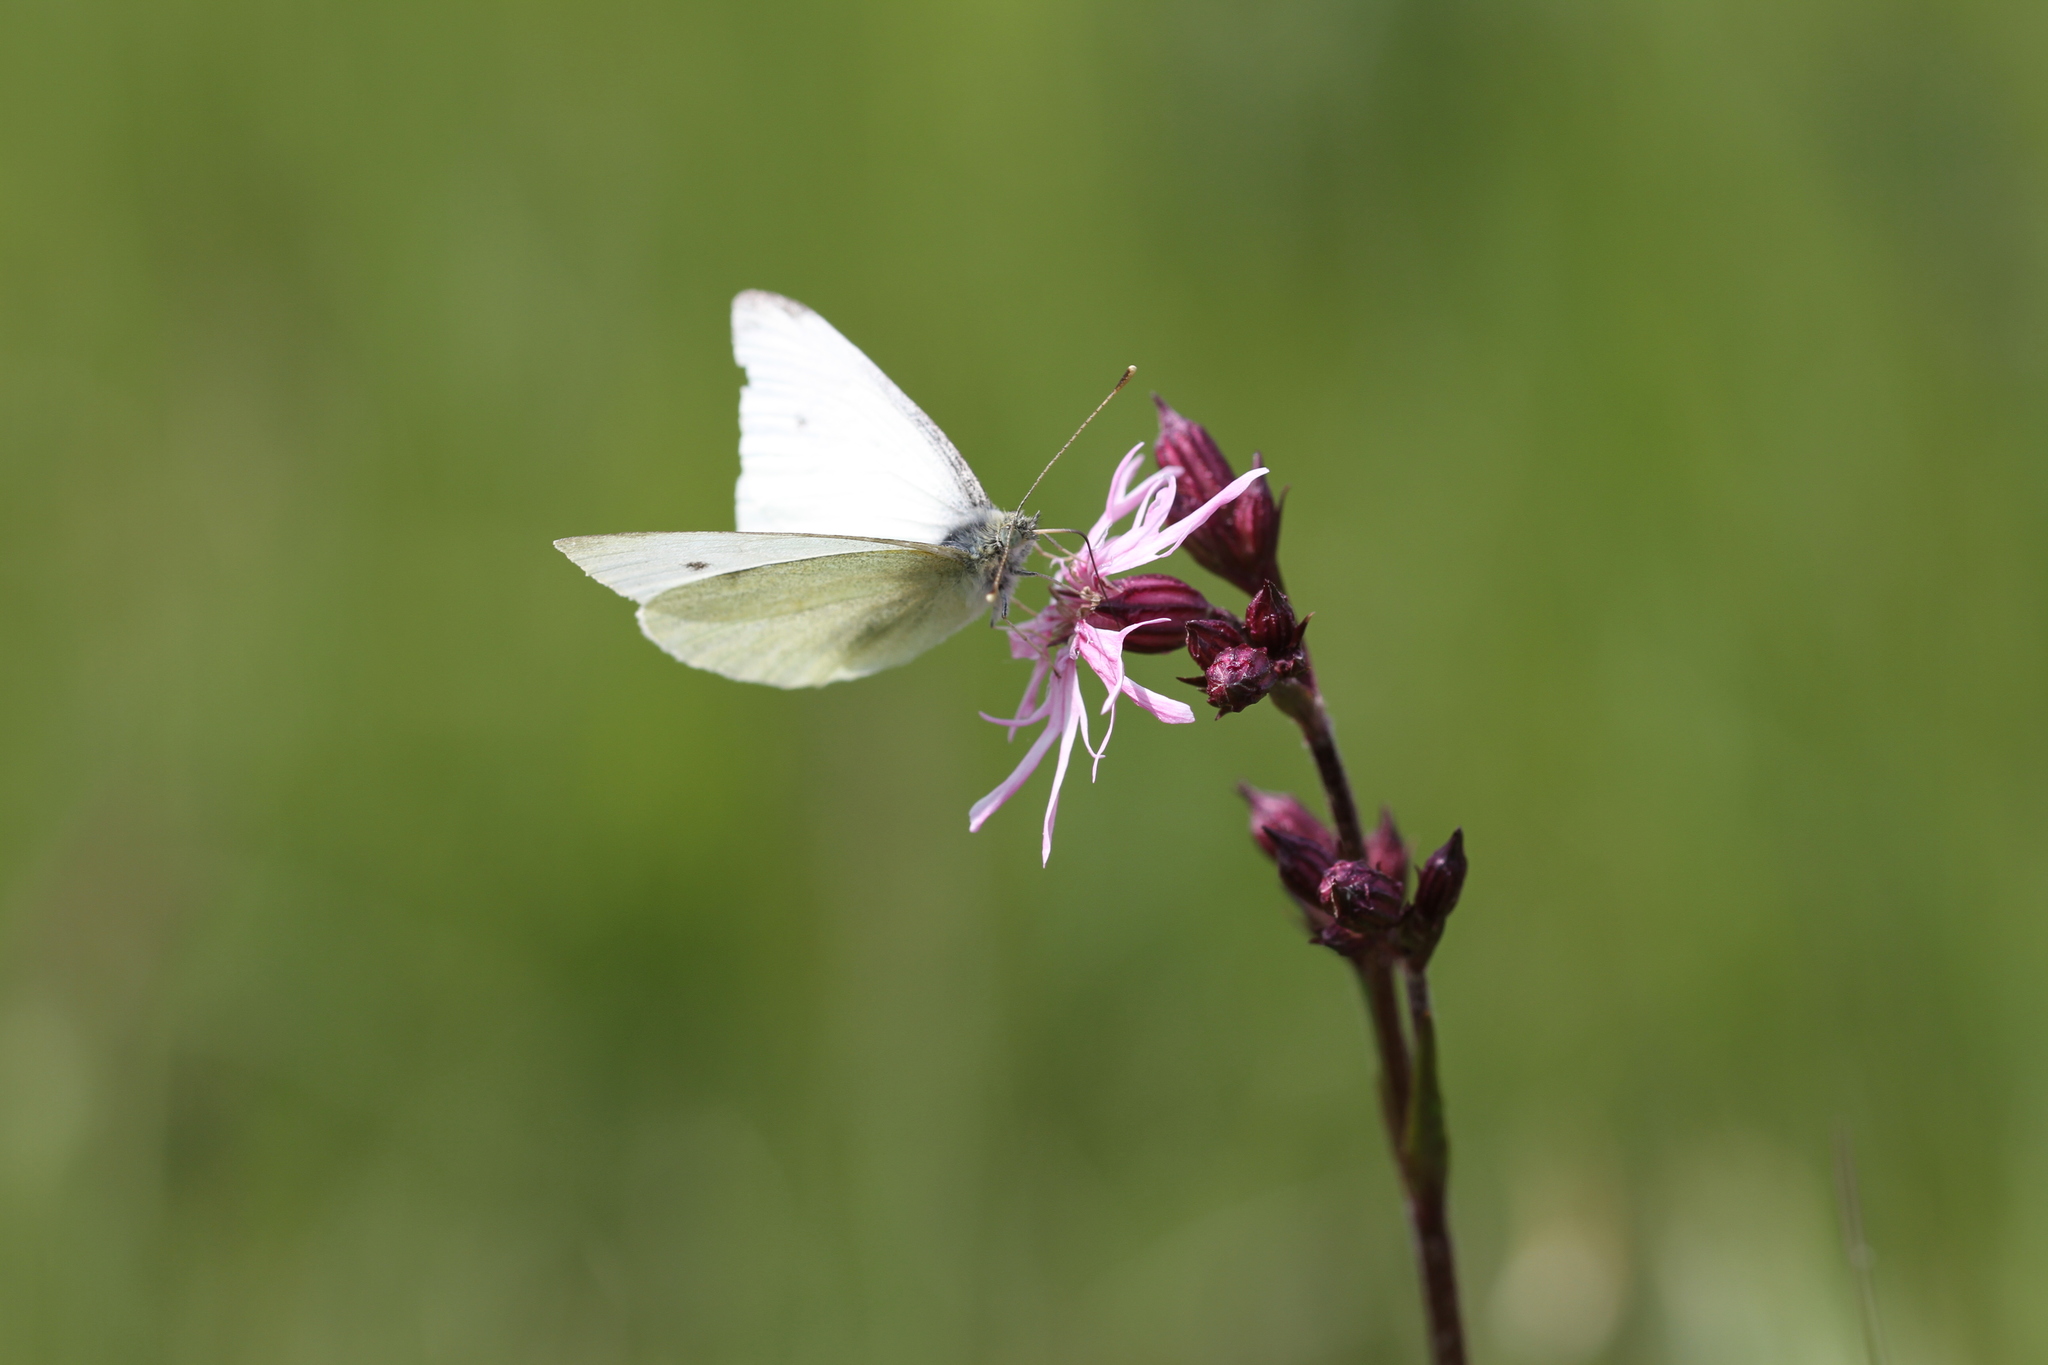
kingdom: Animalia
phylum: Arthropoda
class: Insecta
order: Lepidoptera
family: Pieridae
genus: Pieris
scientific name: Pieris rapae
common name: Small white
